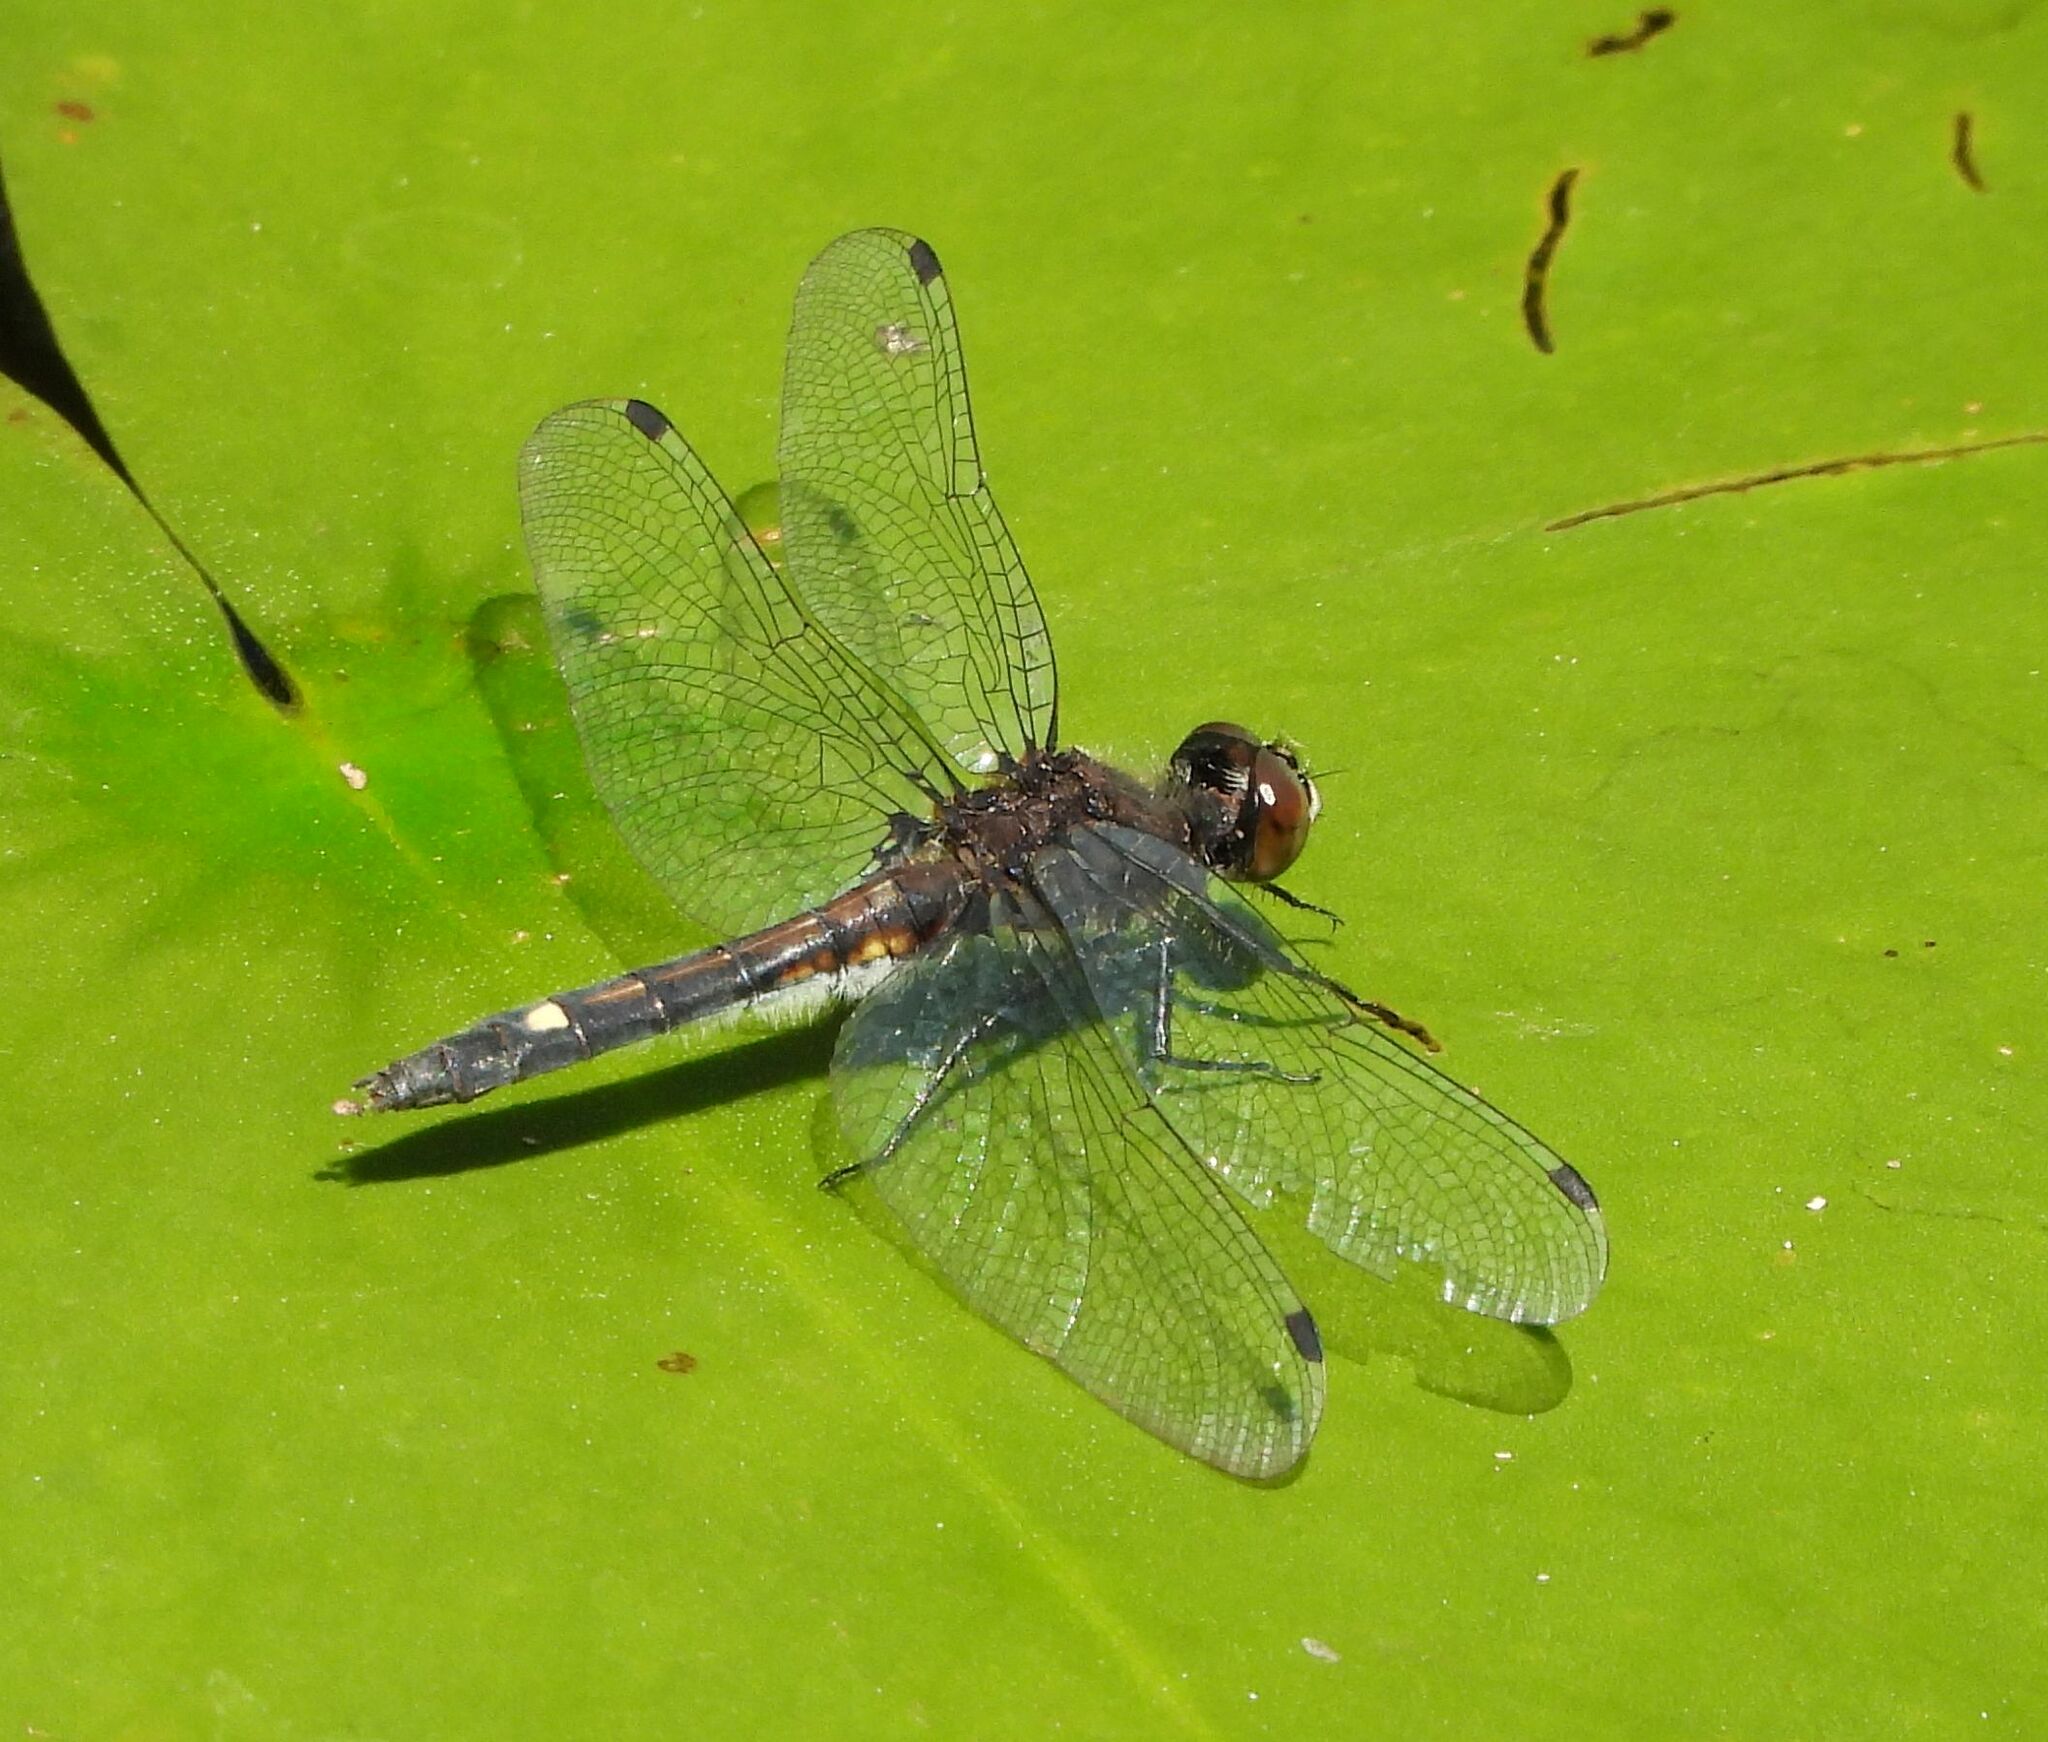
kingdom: Animalia
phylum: Arthropoda
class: Insecta
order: Odonata
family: Libellulidae
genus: Leucorrhinia
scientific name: Leucorrhinia intacta
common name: Dot-tailed whiteface
